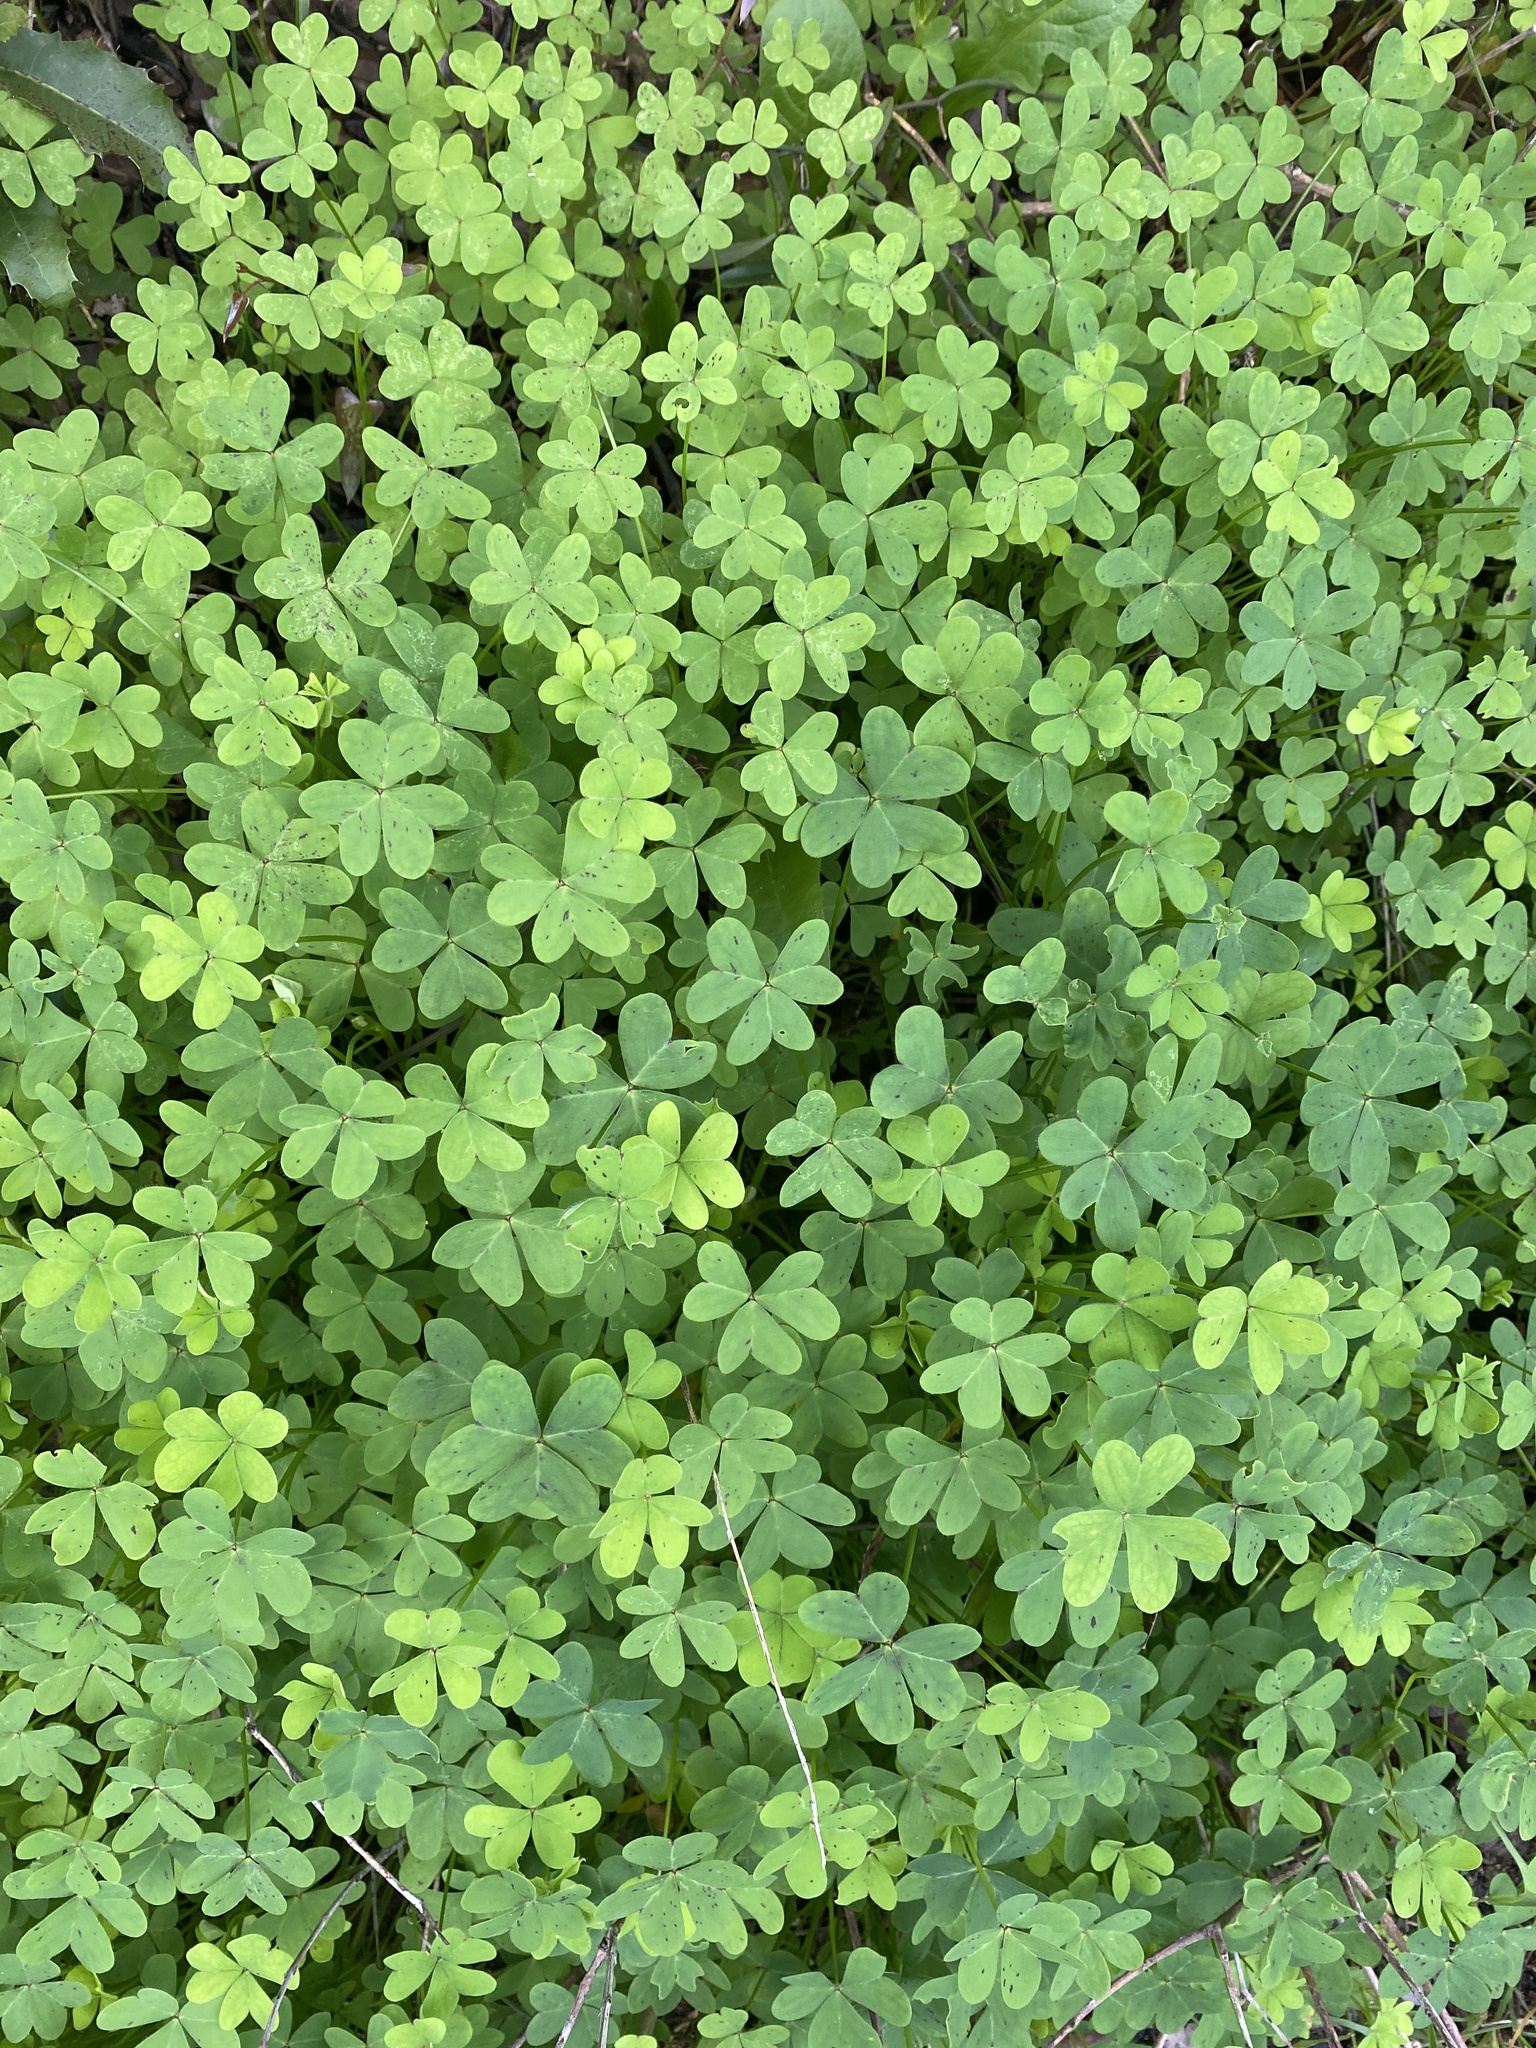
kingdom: Plantae
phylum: Tracheophyta
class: Magnoliopsida
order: Oxalidales
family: Oxalidaceae
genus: Oxalis
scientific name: Oxalis pes-caprae
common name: Bermuda-buttercup
